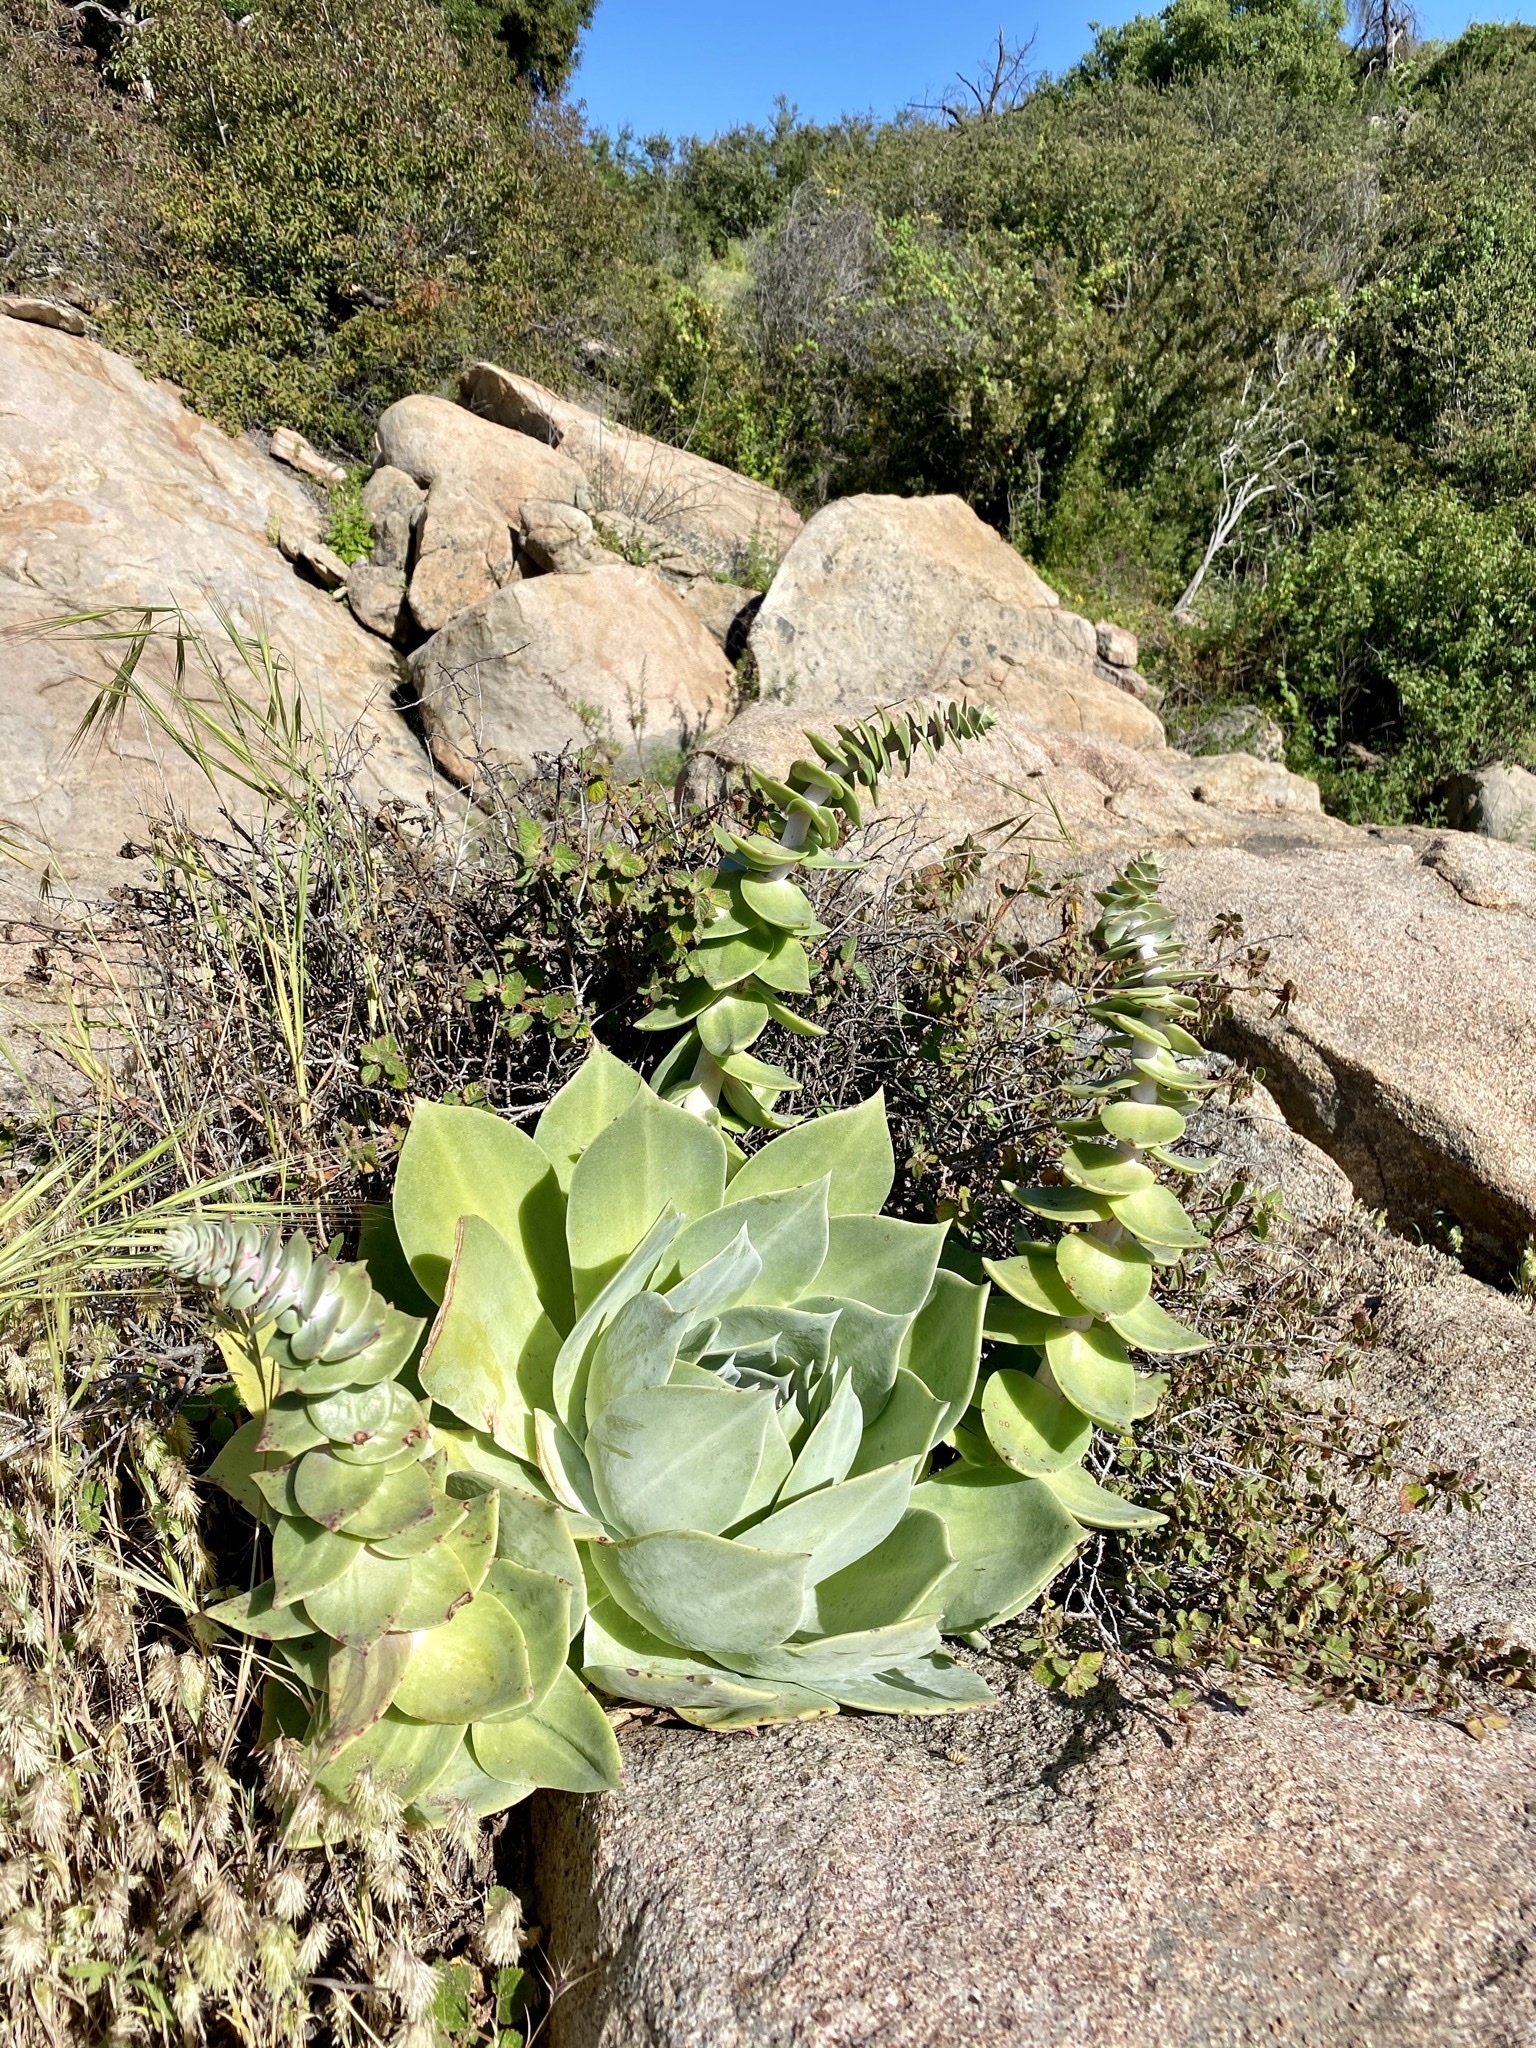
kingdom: Plantae
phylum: Tracheophyta
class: Magnoliopsida
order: Saxifragales
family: Crassulaceae
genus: Dudleya
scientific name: Dudleya pulverulenta
